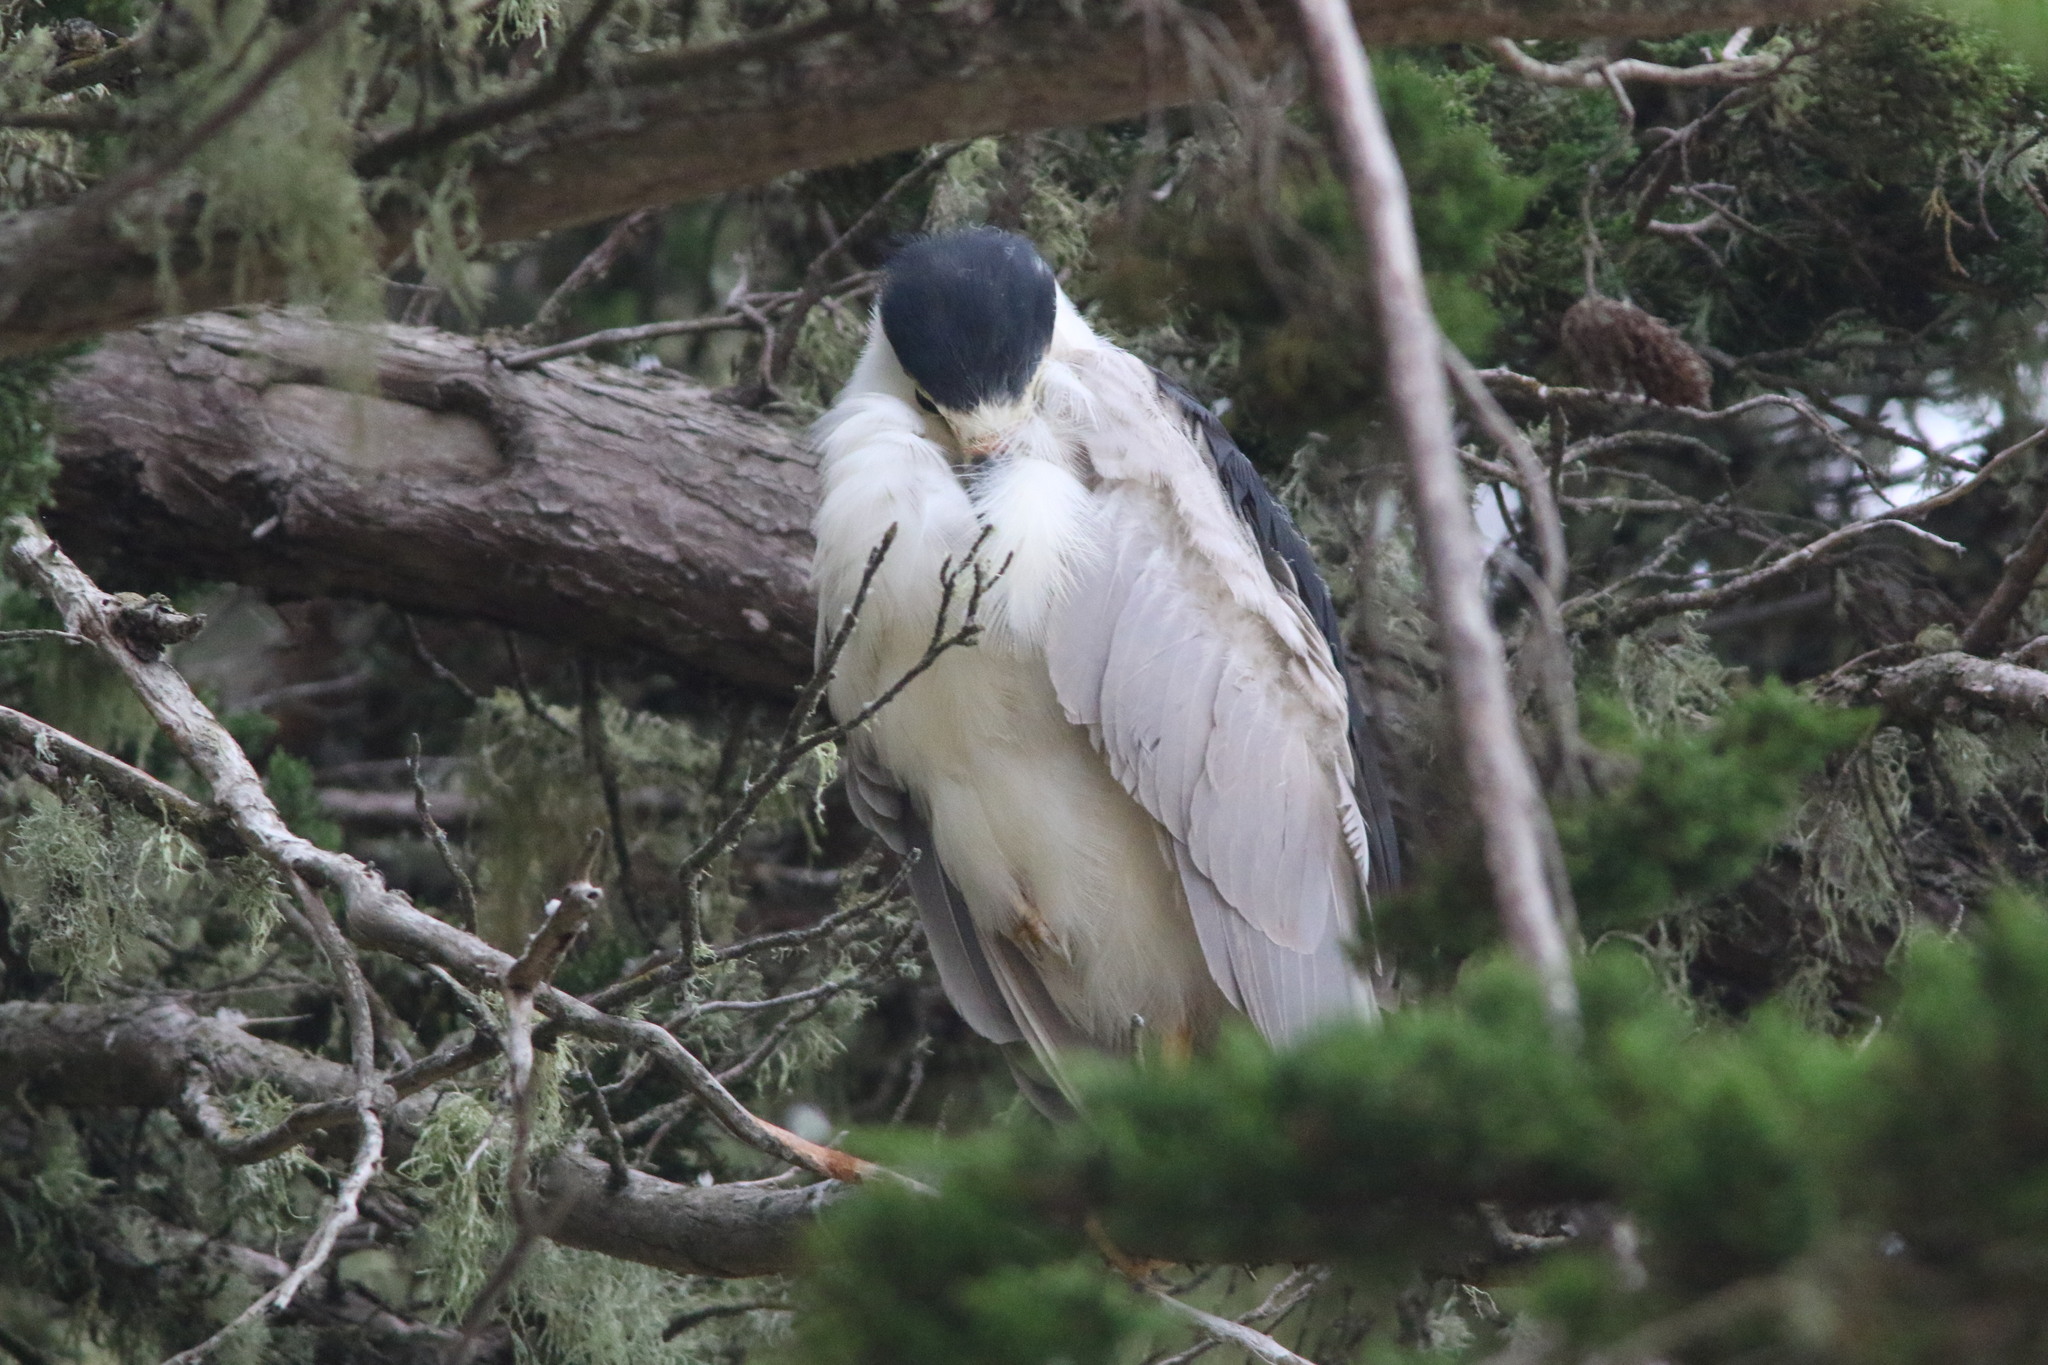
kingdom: Animalia
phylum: Chordata
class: Aves
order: Pelecaniformes
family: Ardeidae
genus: Nycticorax
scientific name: Nycticorax nycticorax
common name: Black-crowned night heron
